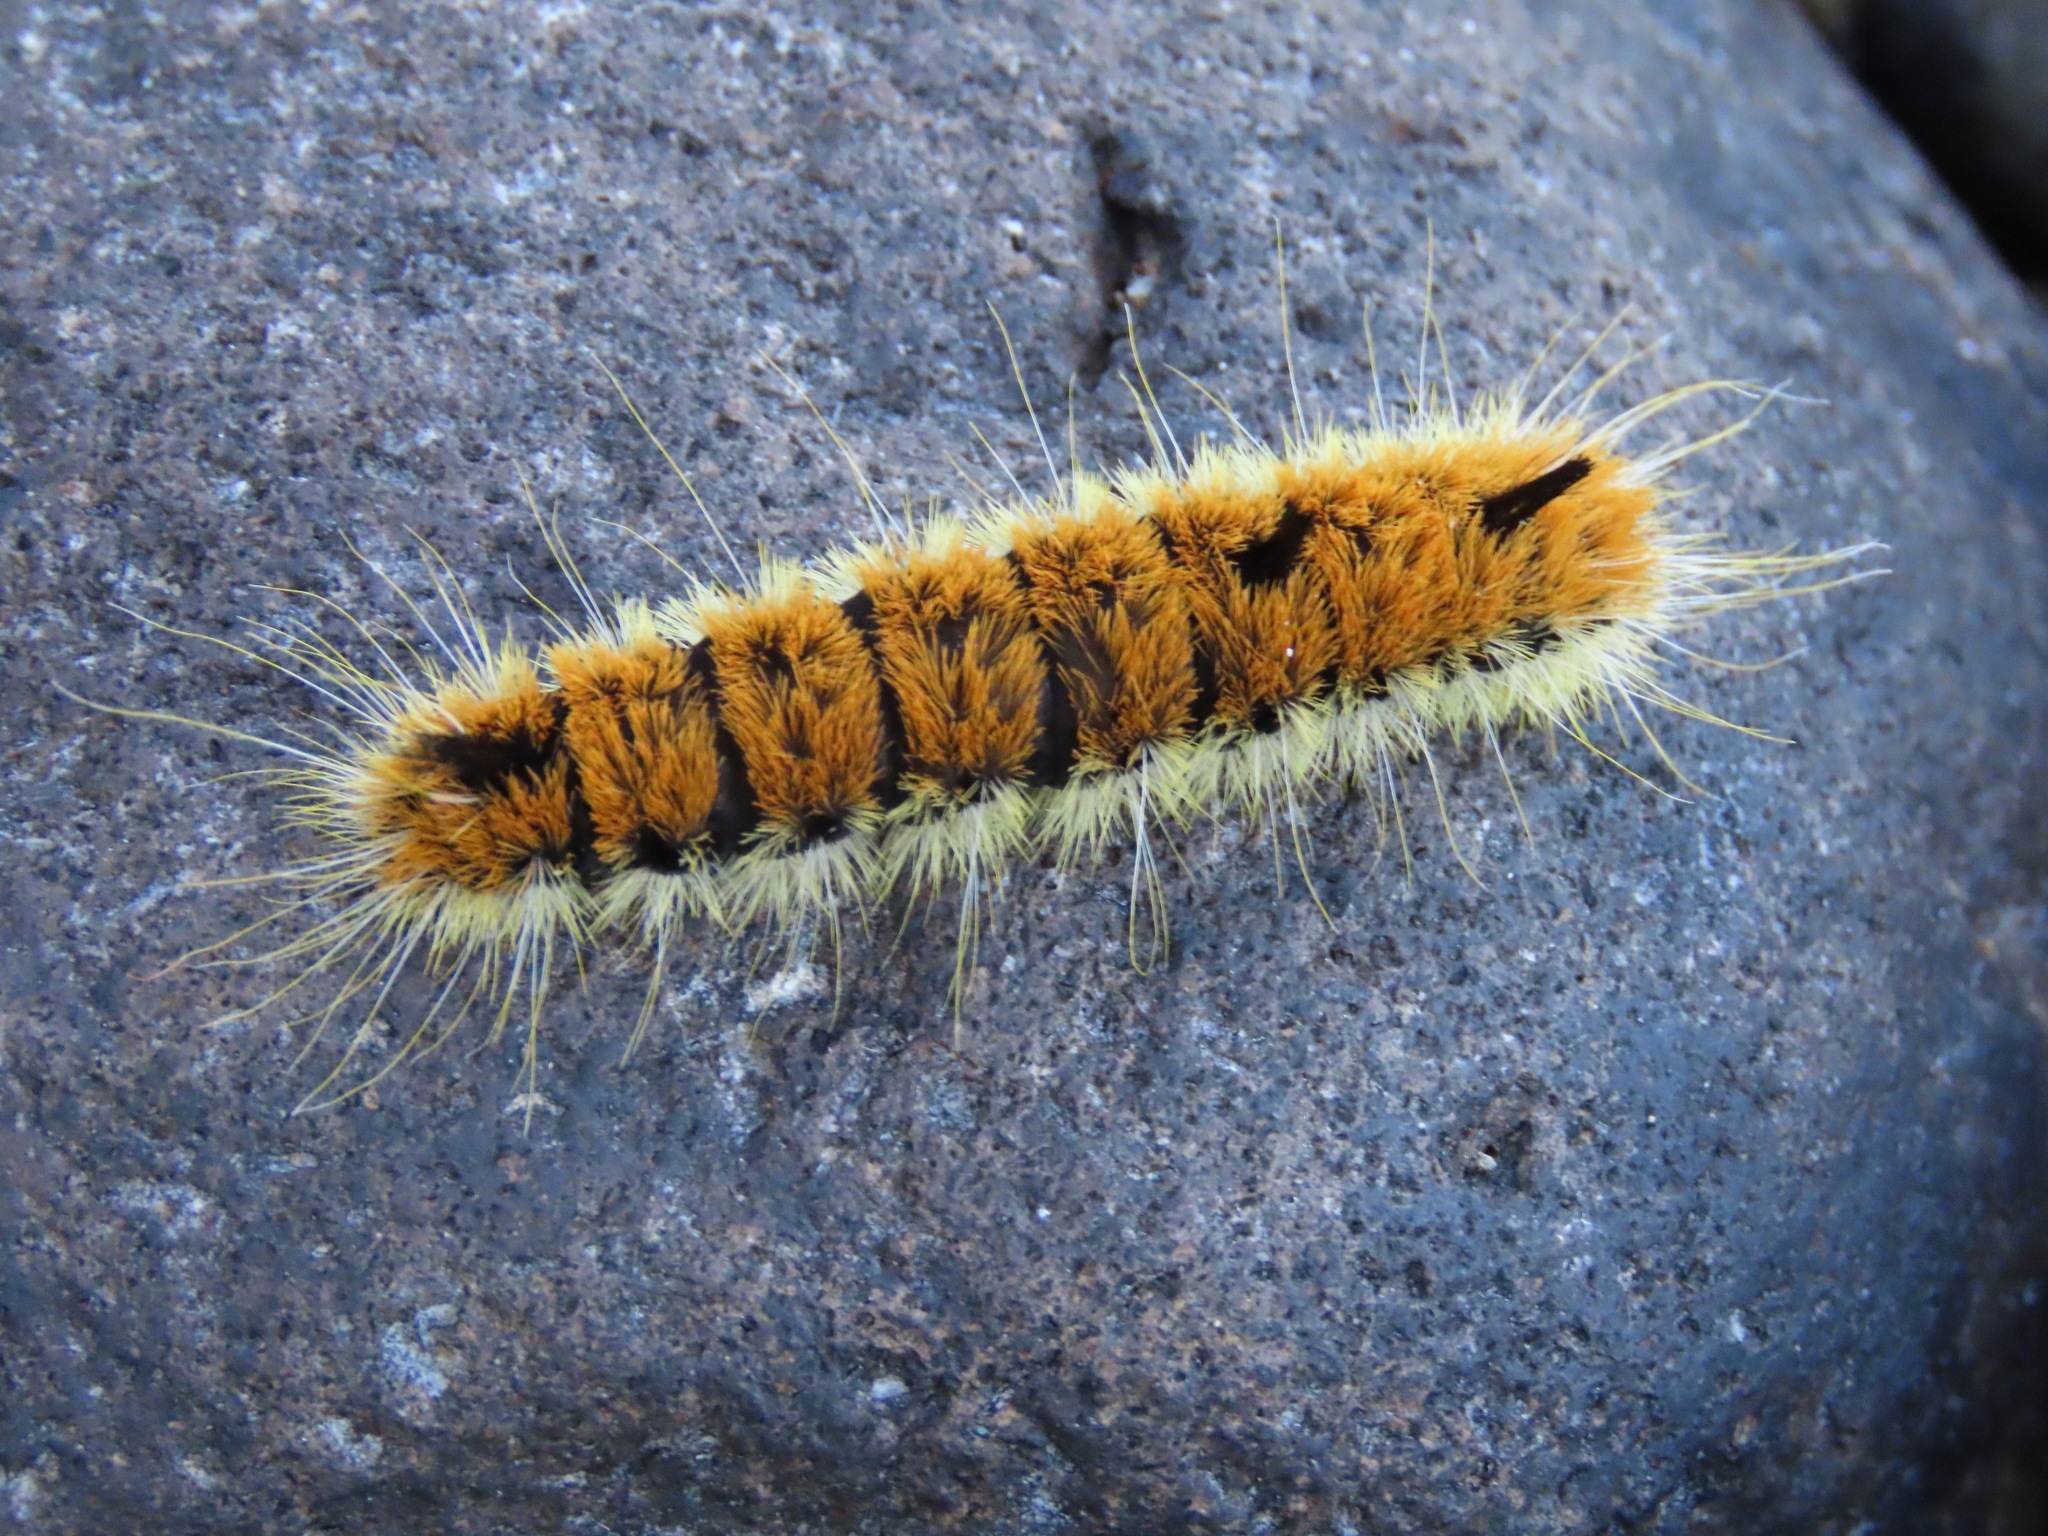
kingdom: Animalia
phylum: Arthropoda
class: Insecta
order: Lepidoptera
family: Noctuidae
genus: Acronicta
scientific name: Acronicta insita
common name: Large gray dagger
